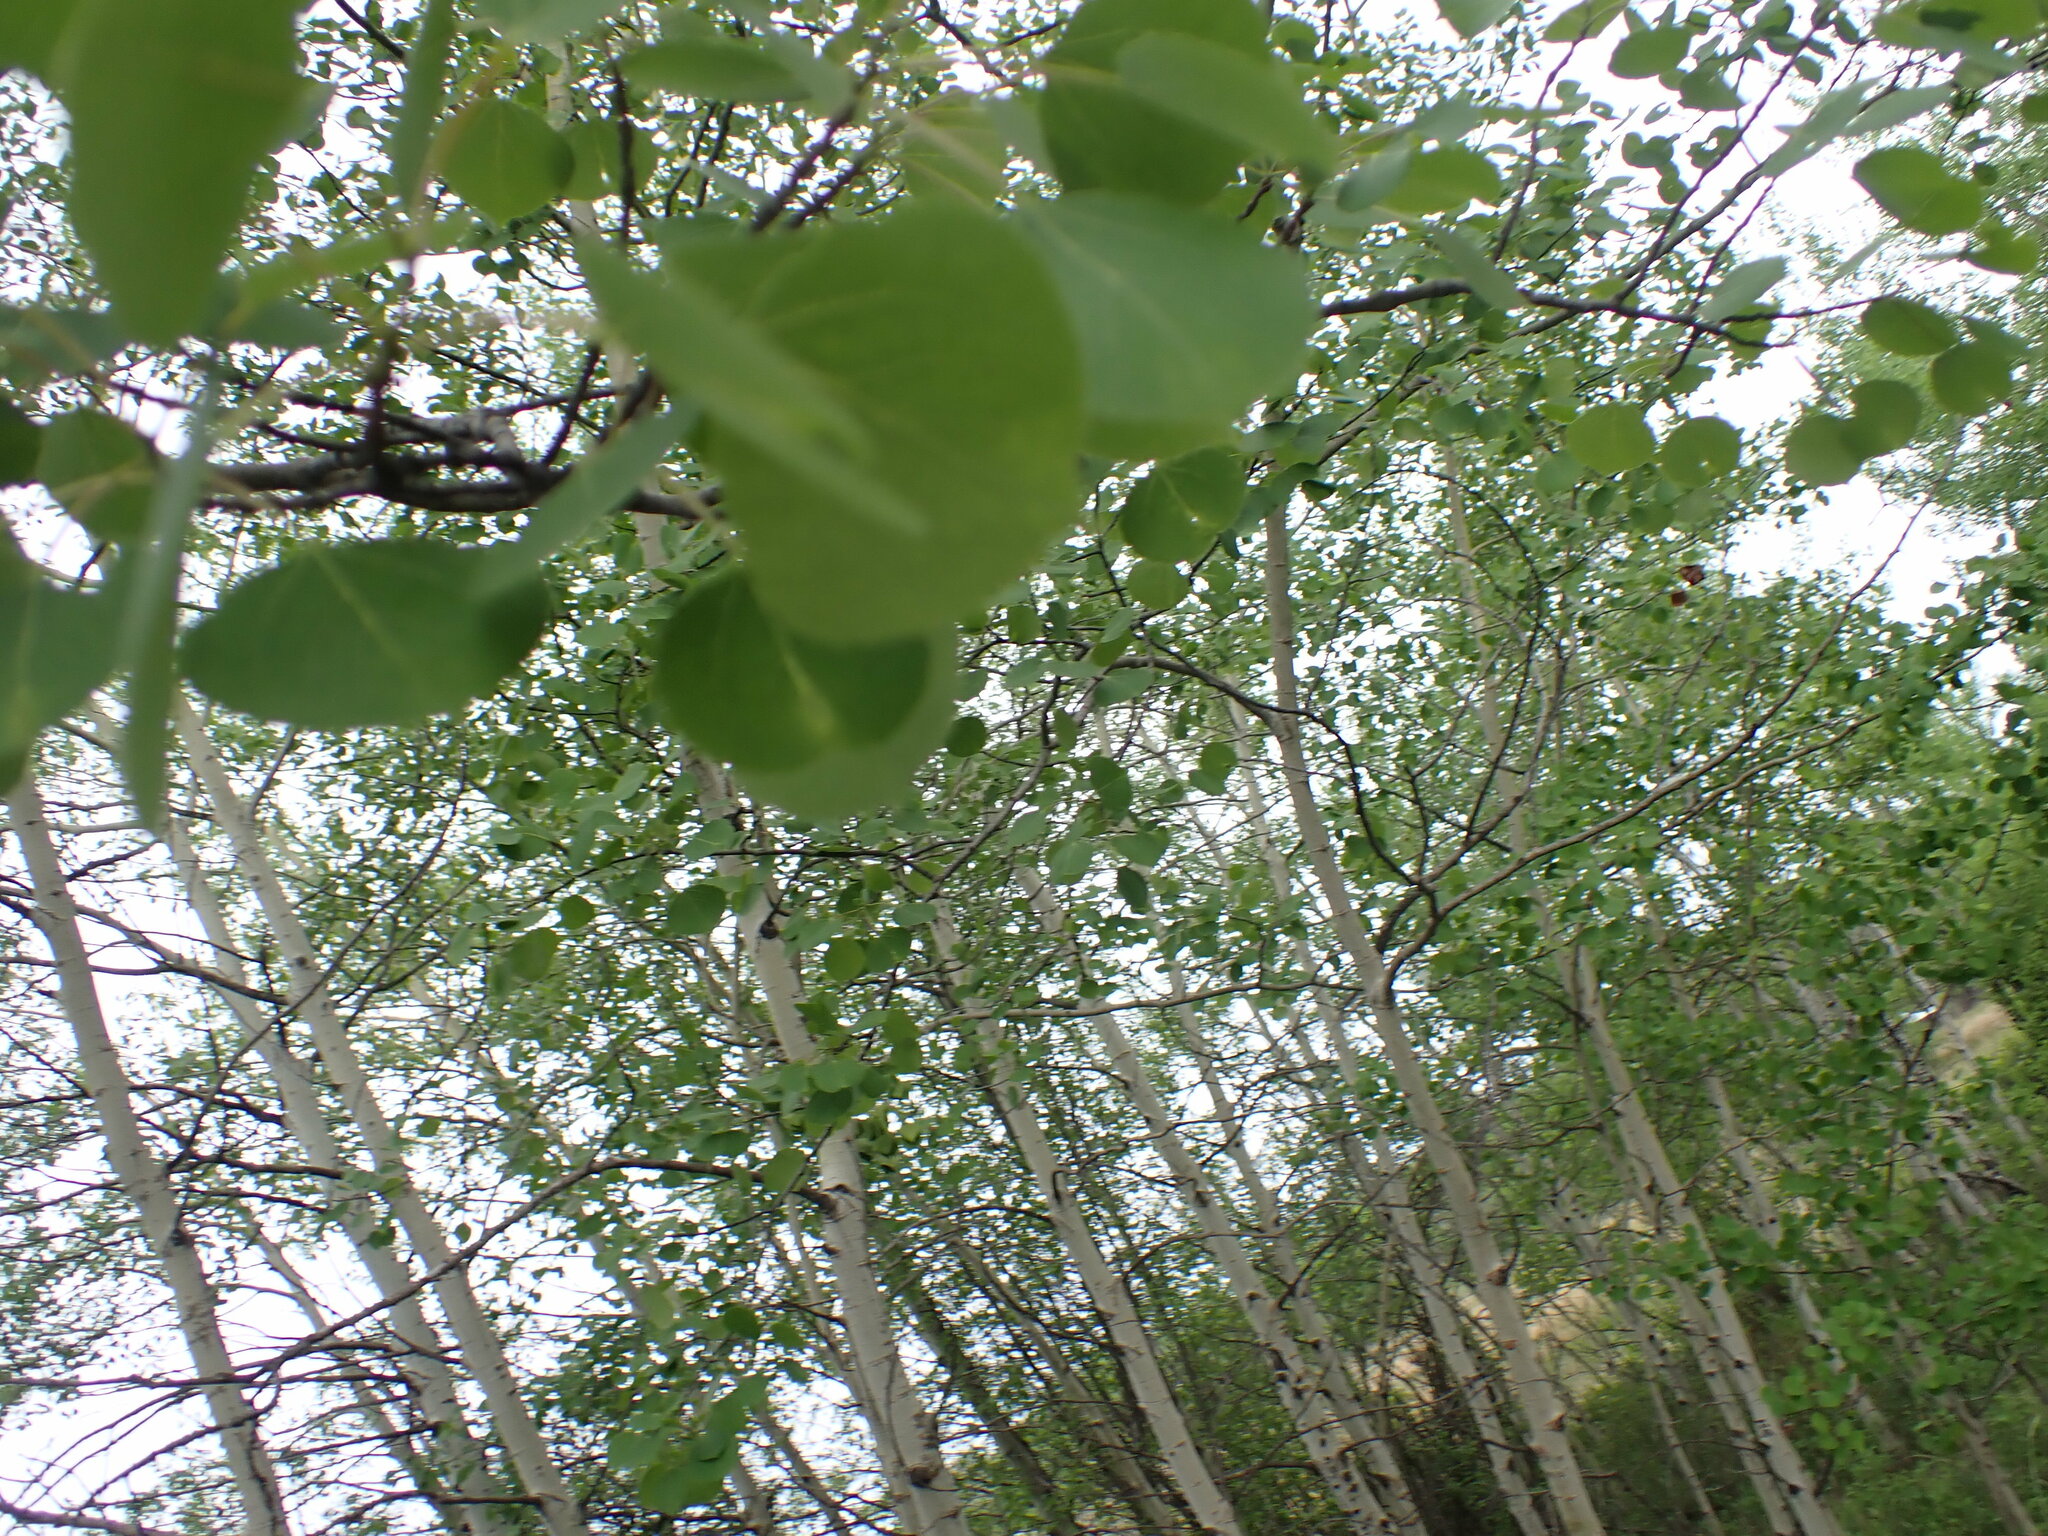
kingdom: Plantae
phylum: Tracheophyta
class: Magnoliopsida
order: Malpighiales
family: Salicaceae
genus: Populus
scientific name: Populus tremuloides
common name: Quaking aspen
